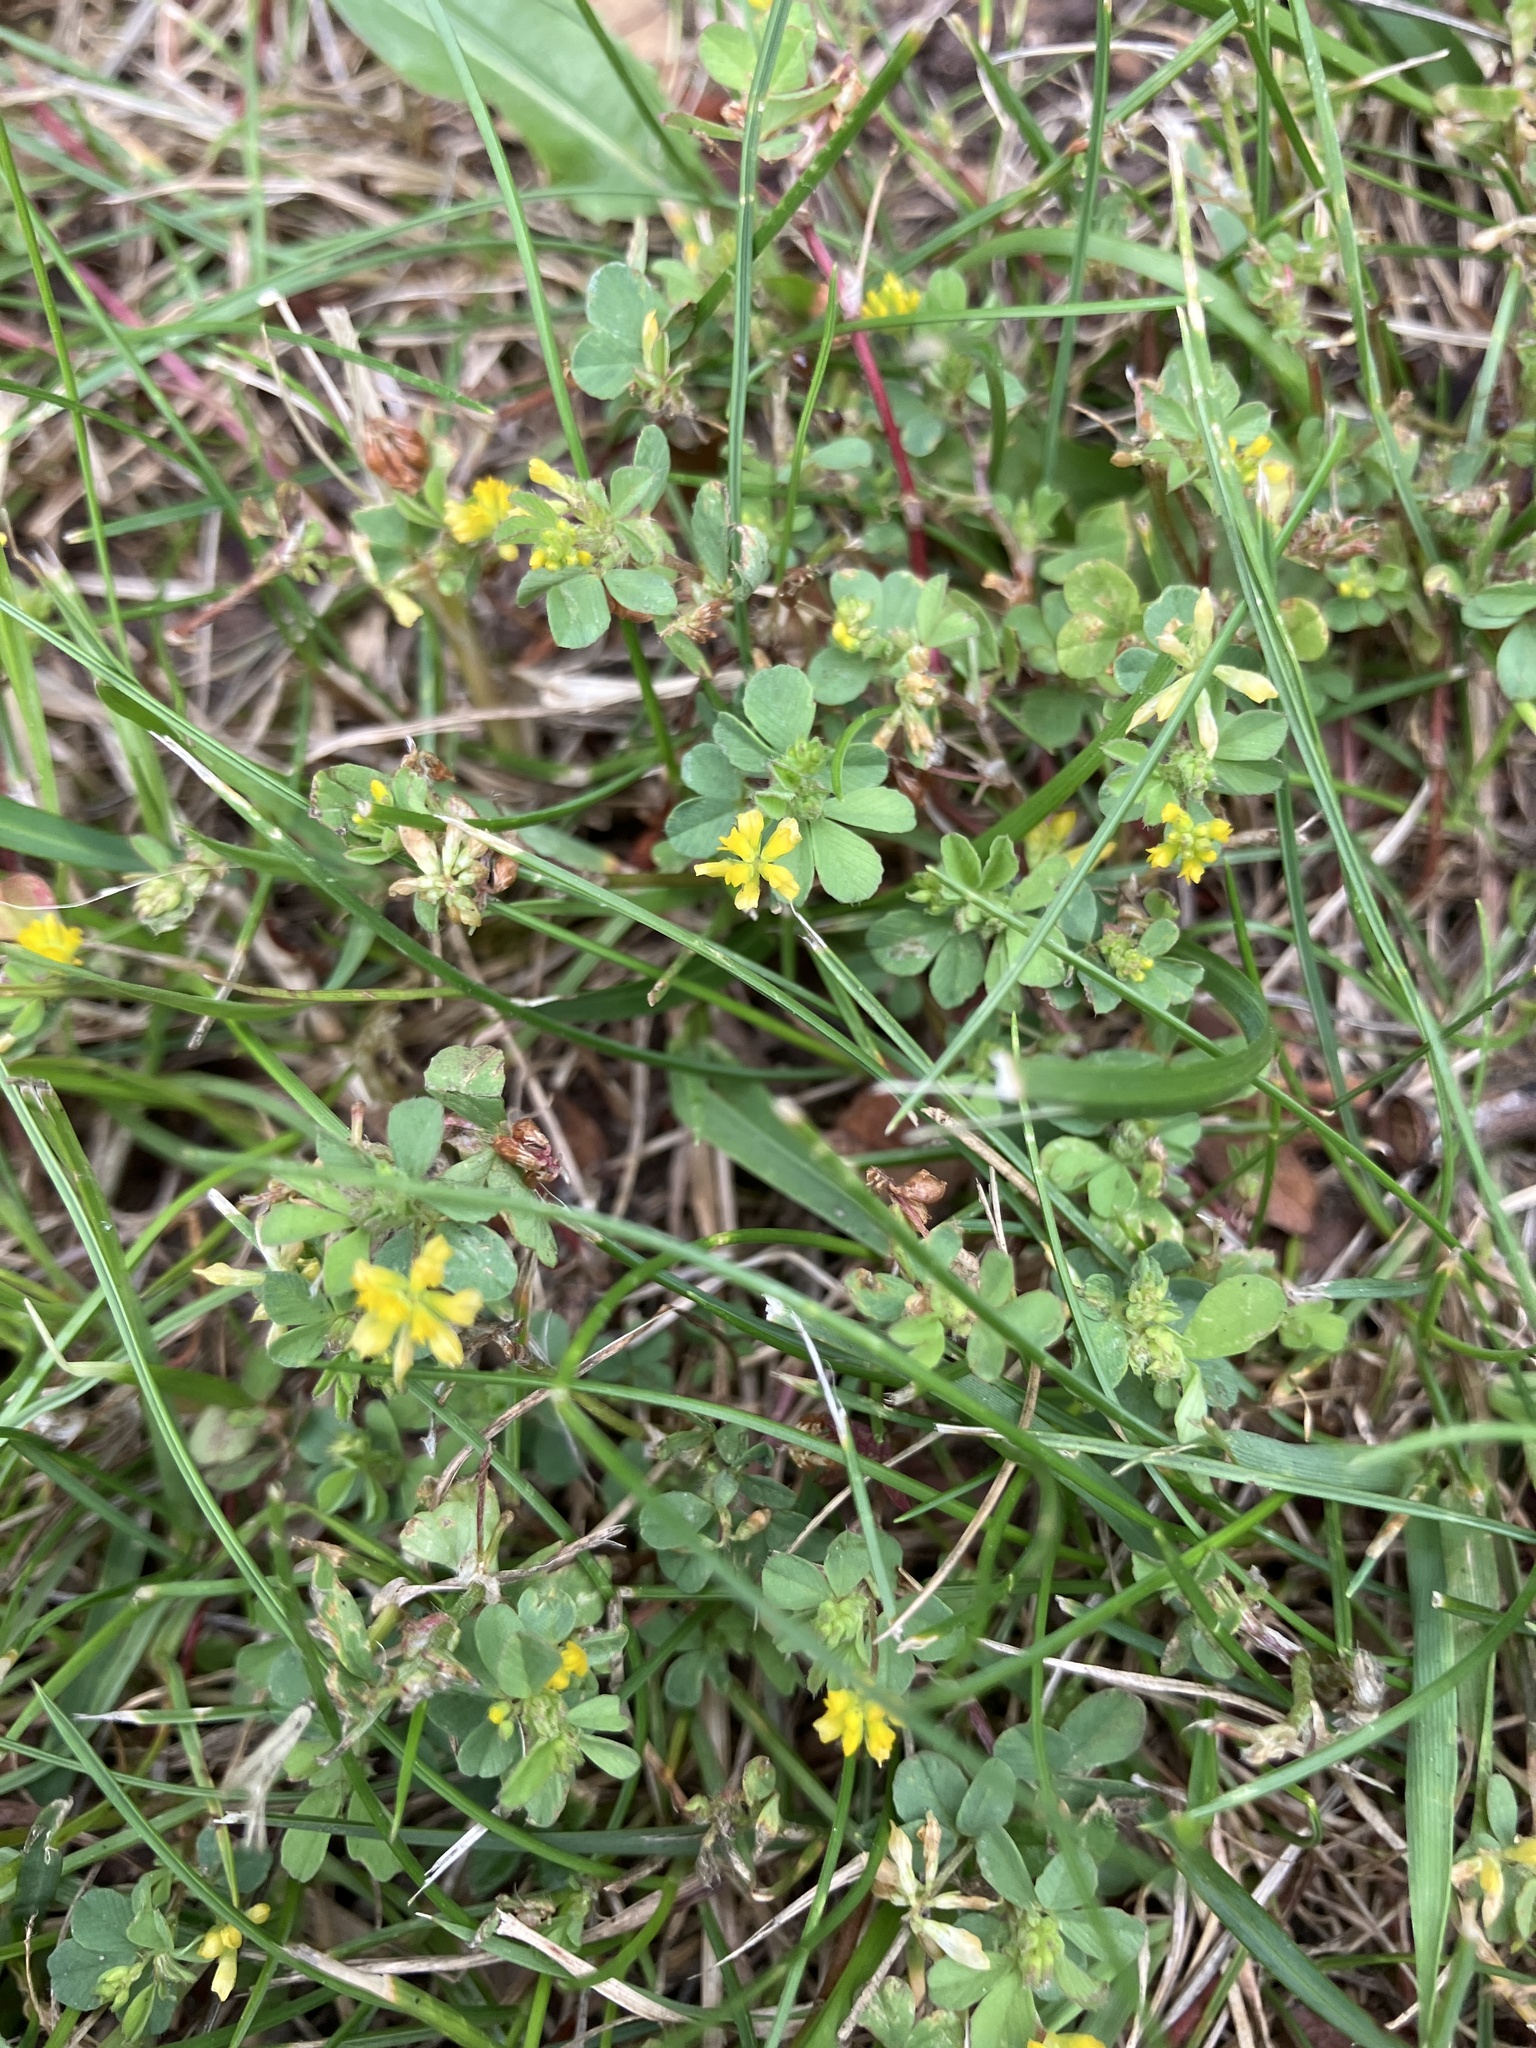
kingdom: Plantae
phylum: Tracheophyta
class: Magnoliopsida
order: Fabales
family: Fabaceae
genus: Trifolium
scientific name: Trifolium dubium
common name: Suckling clover
